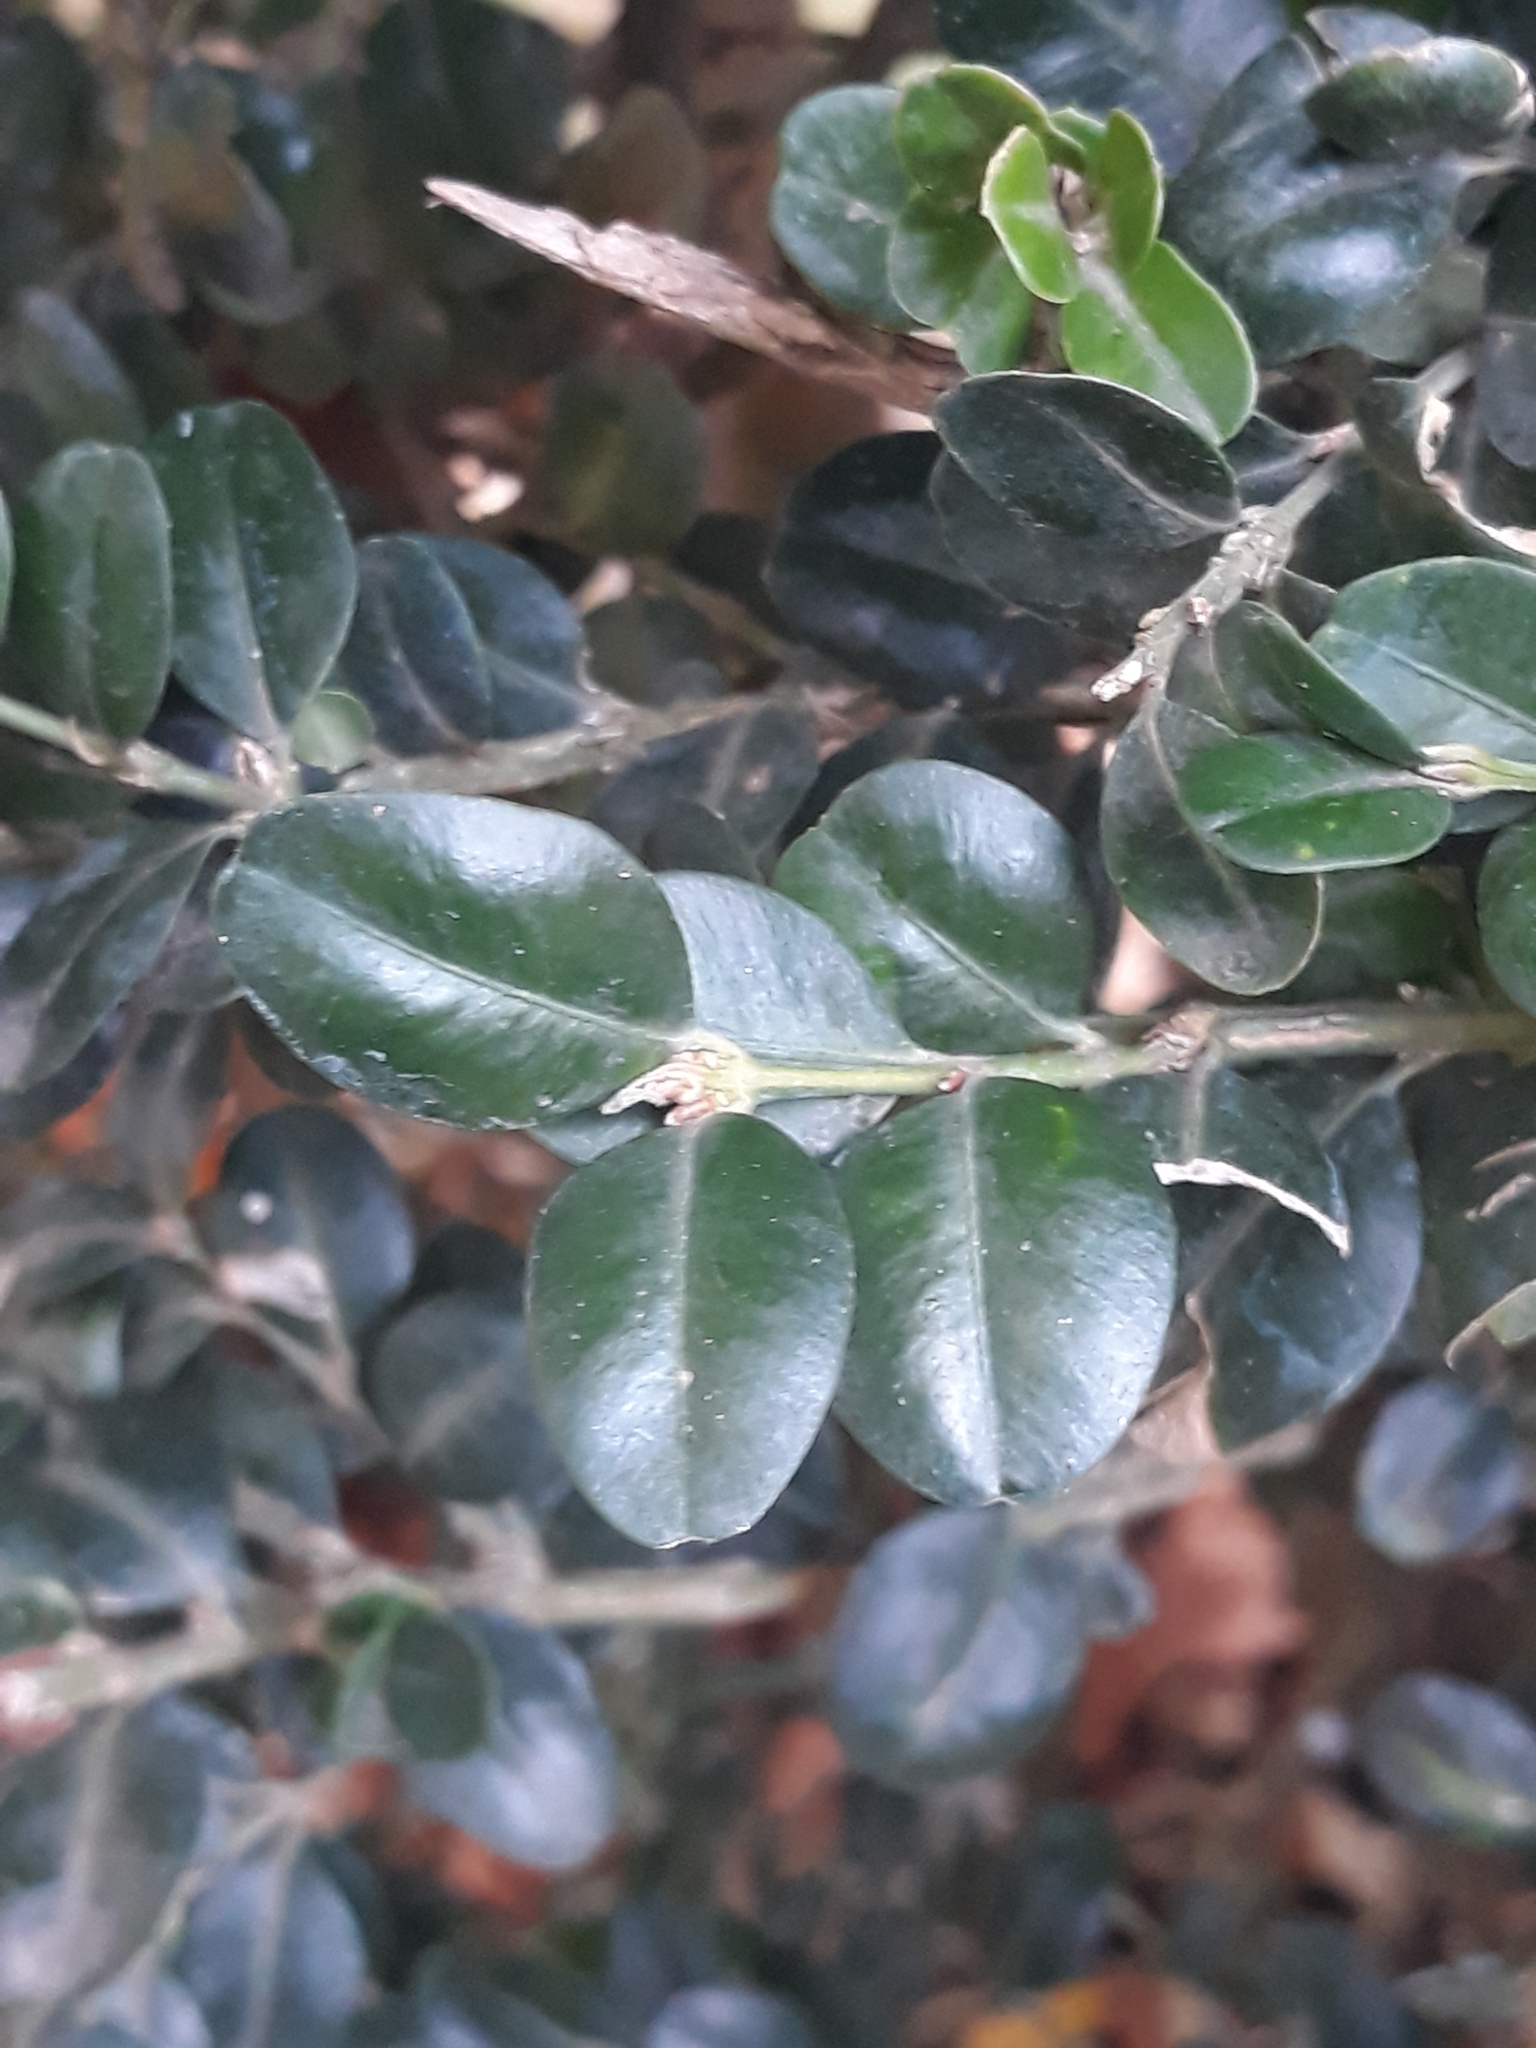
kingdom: Plantae
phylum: Tracheophyta
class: Magnoliopsida
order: Buxales
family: Buxaceae
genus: Buxus
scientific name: Buxus sempervirens
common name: Box
